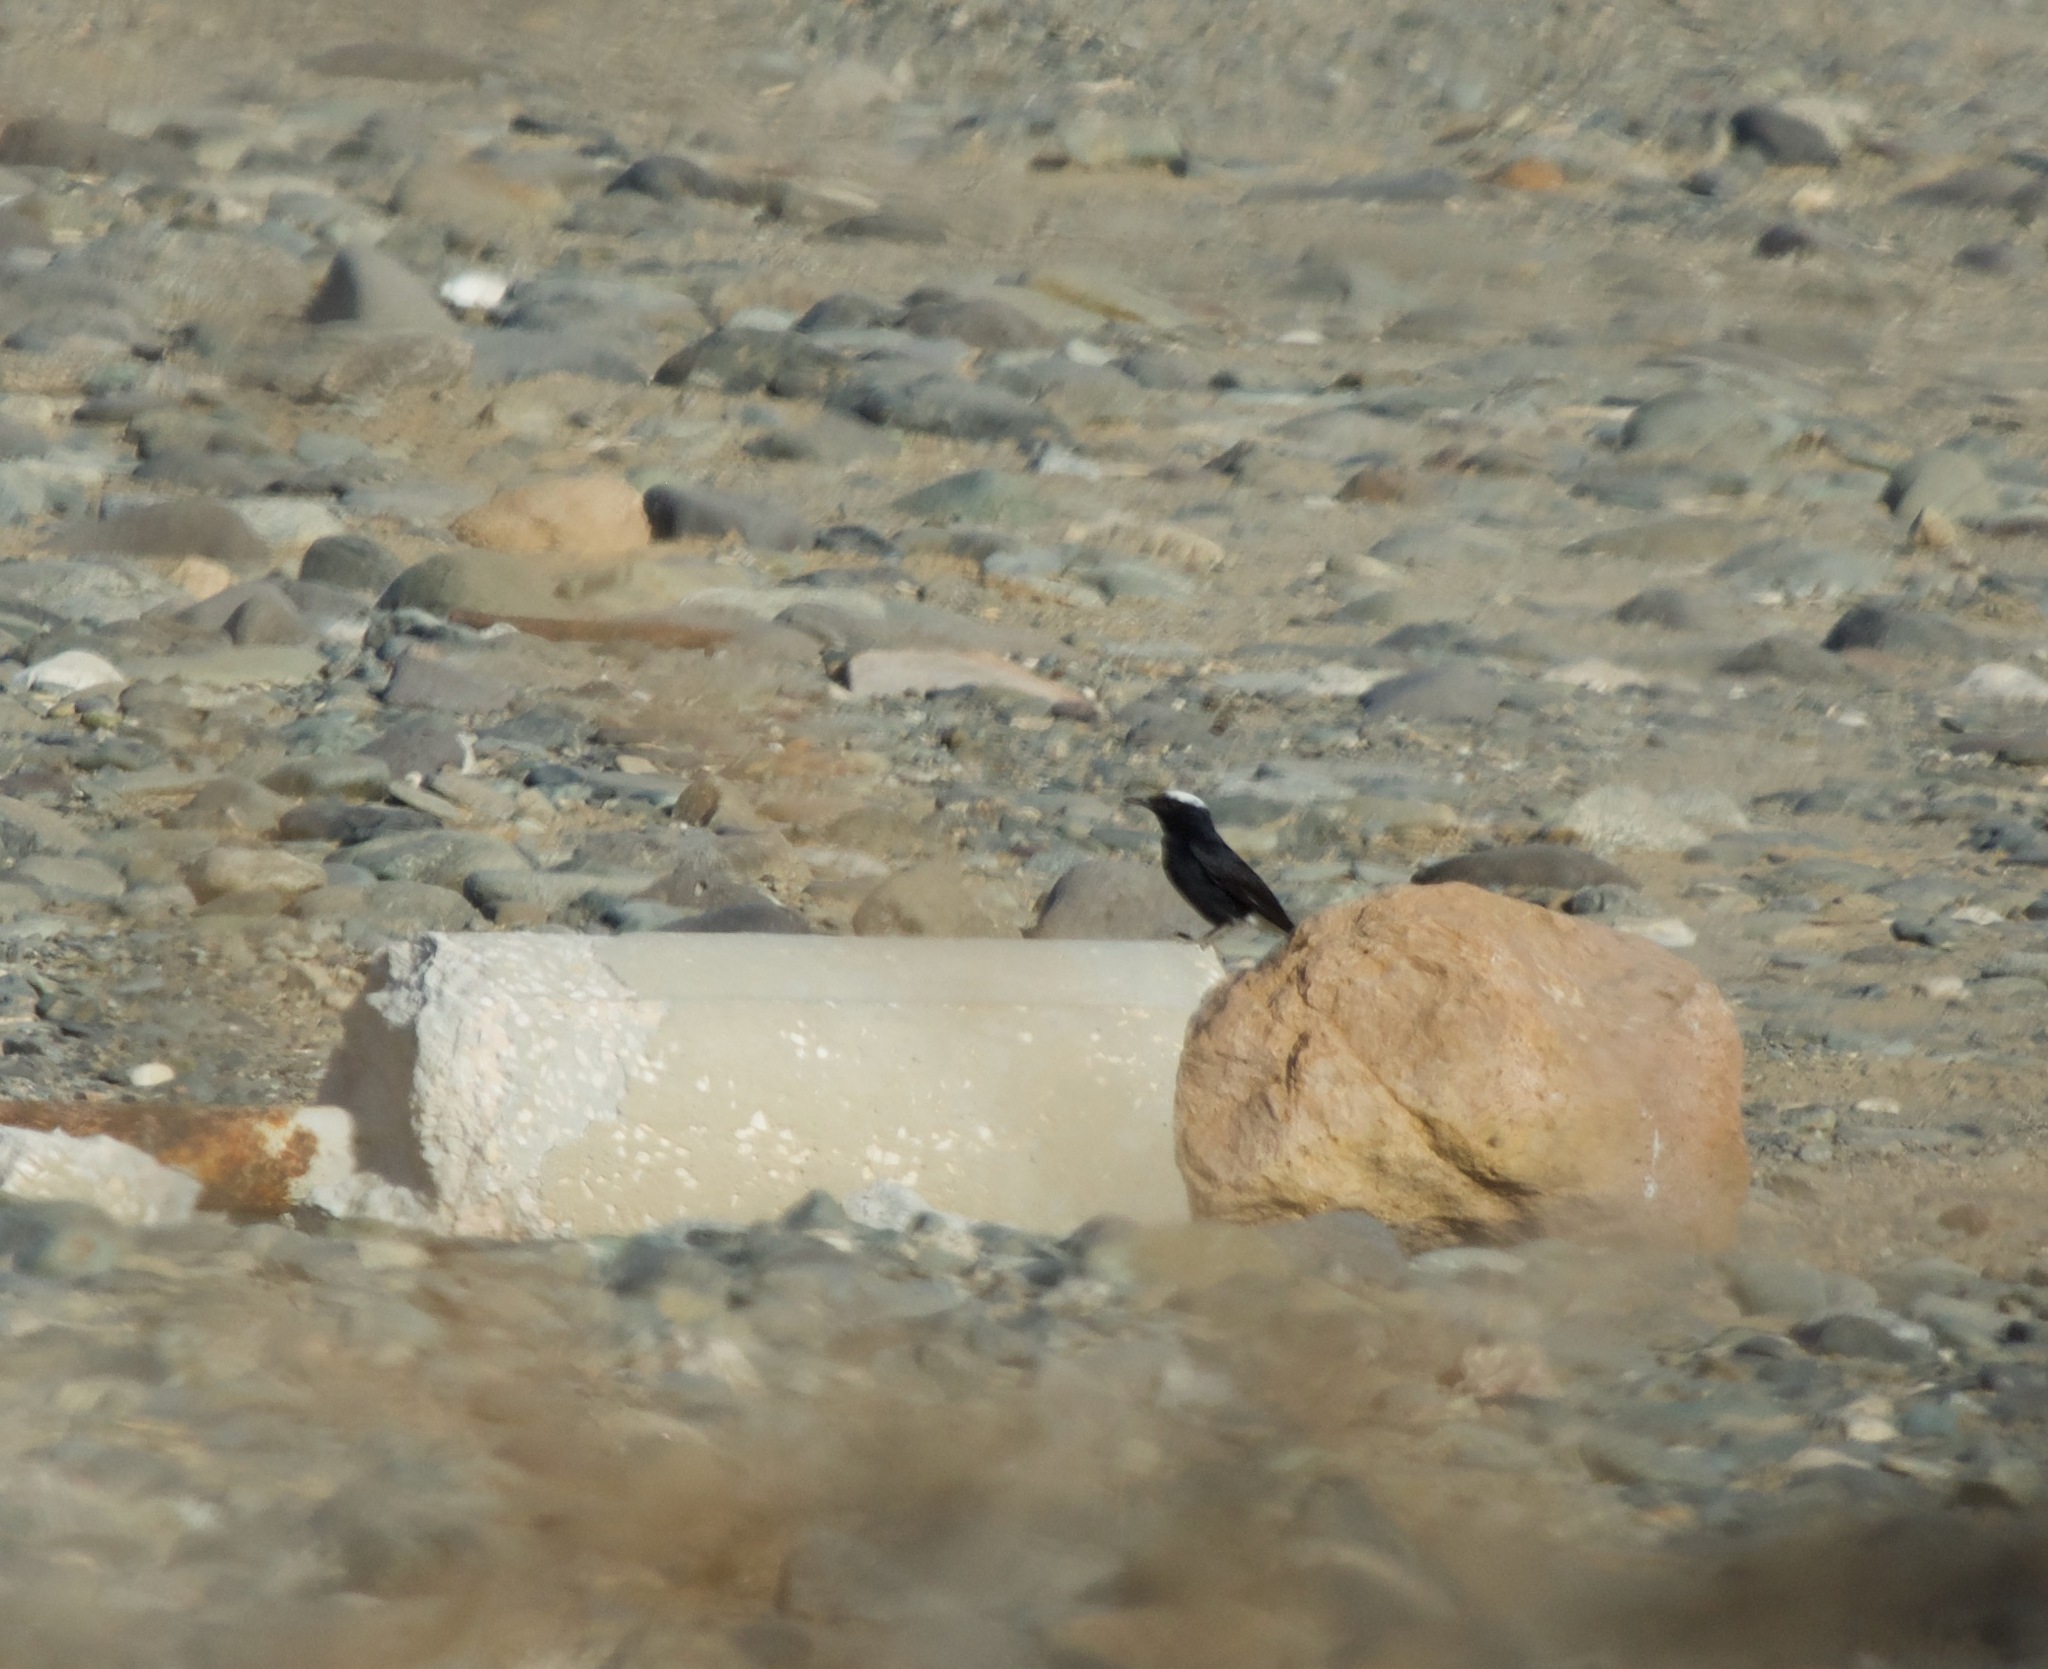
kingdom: Animalia
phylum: Chordata
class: Aves
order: Passeriformes
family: Muscicapidae
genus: Oenanthe
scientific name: Oenanthe leucopyga
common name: White-crowned wheatear
